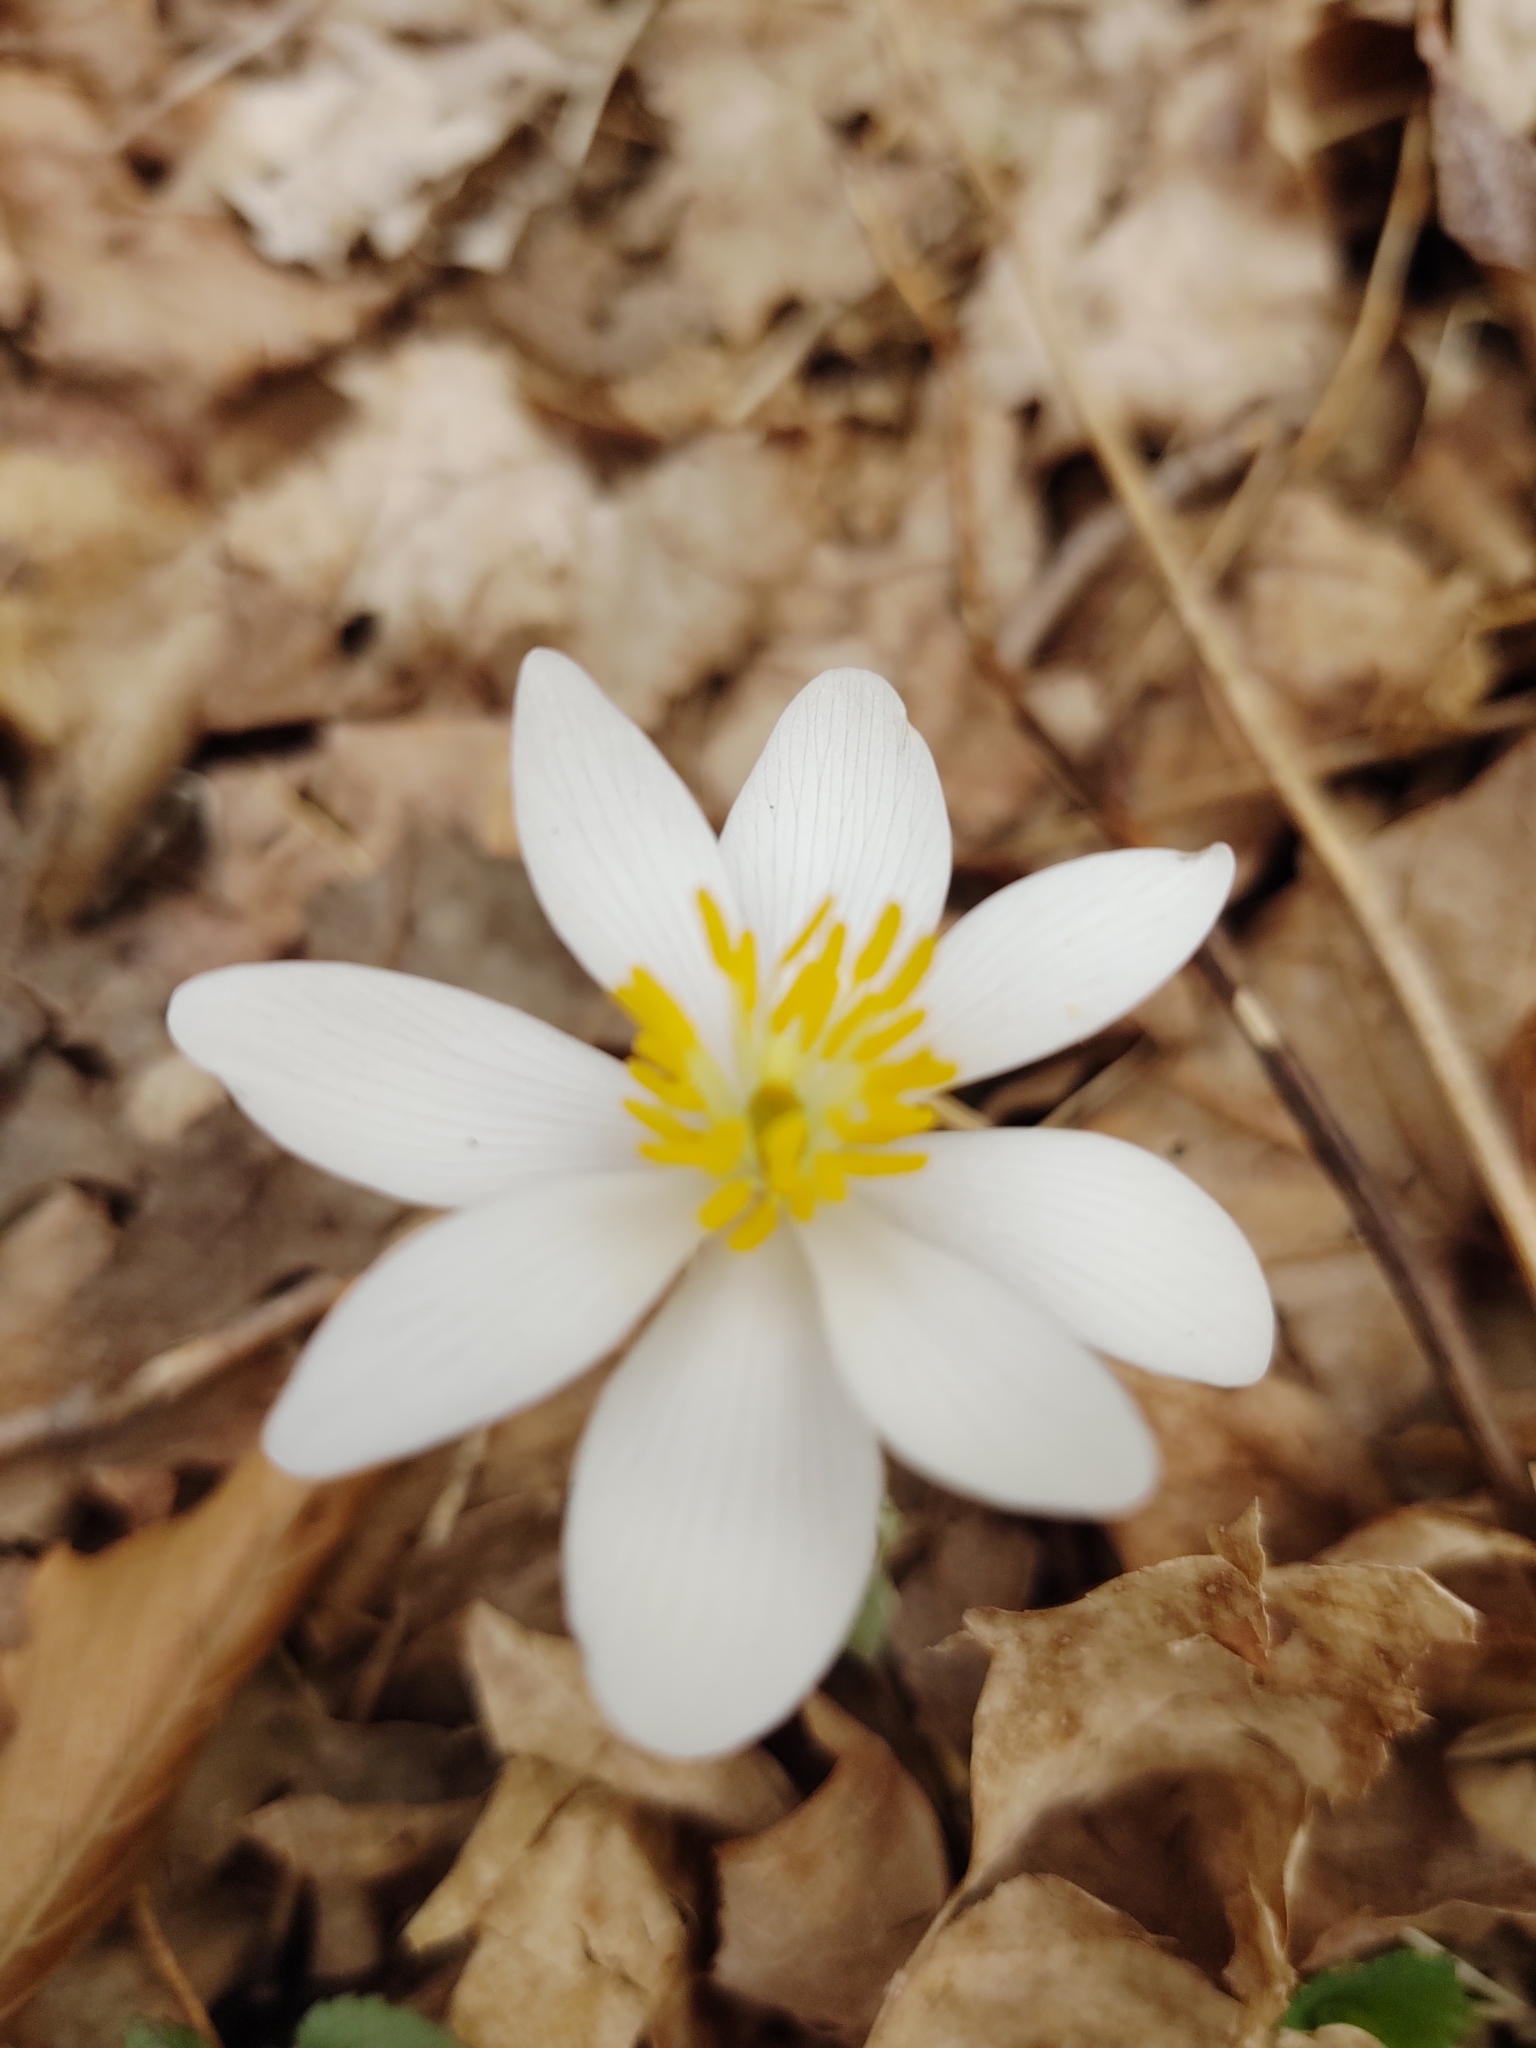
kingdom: Plantae
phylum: Tracheophyta
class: Magnoliopsida
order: Ranunculales
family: Papaveraceae
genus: Sanguinaria
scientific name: Sanguinaria canadensis
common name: Bloodroot
